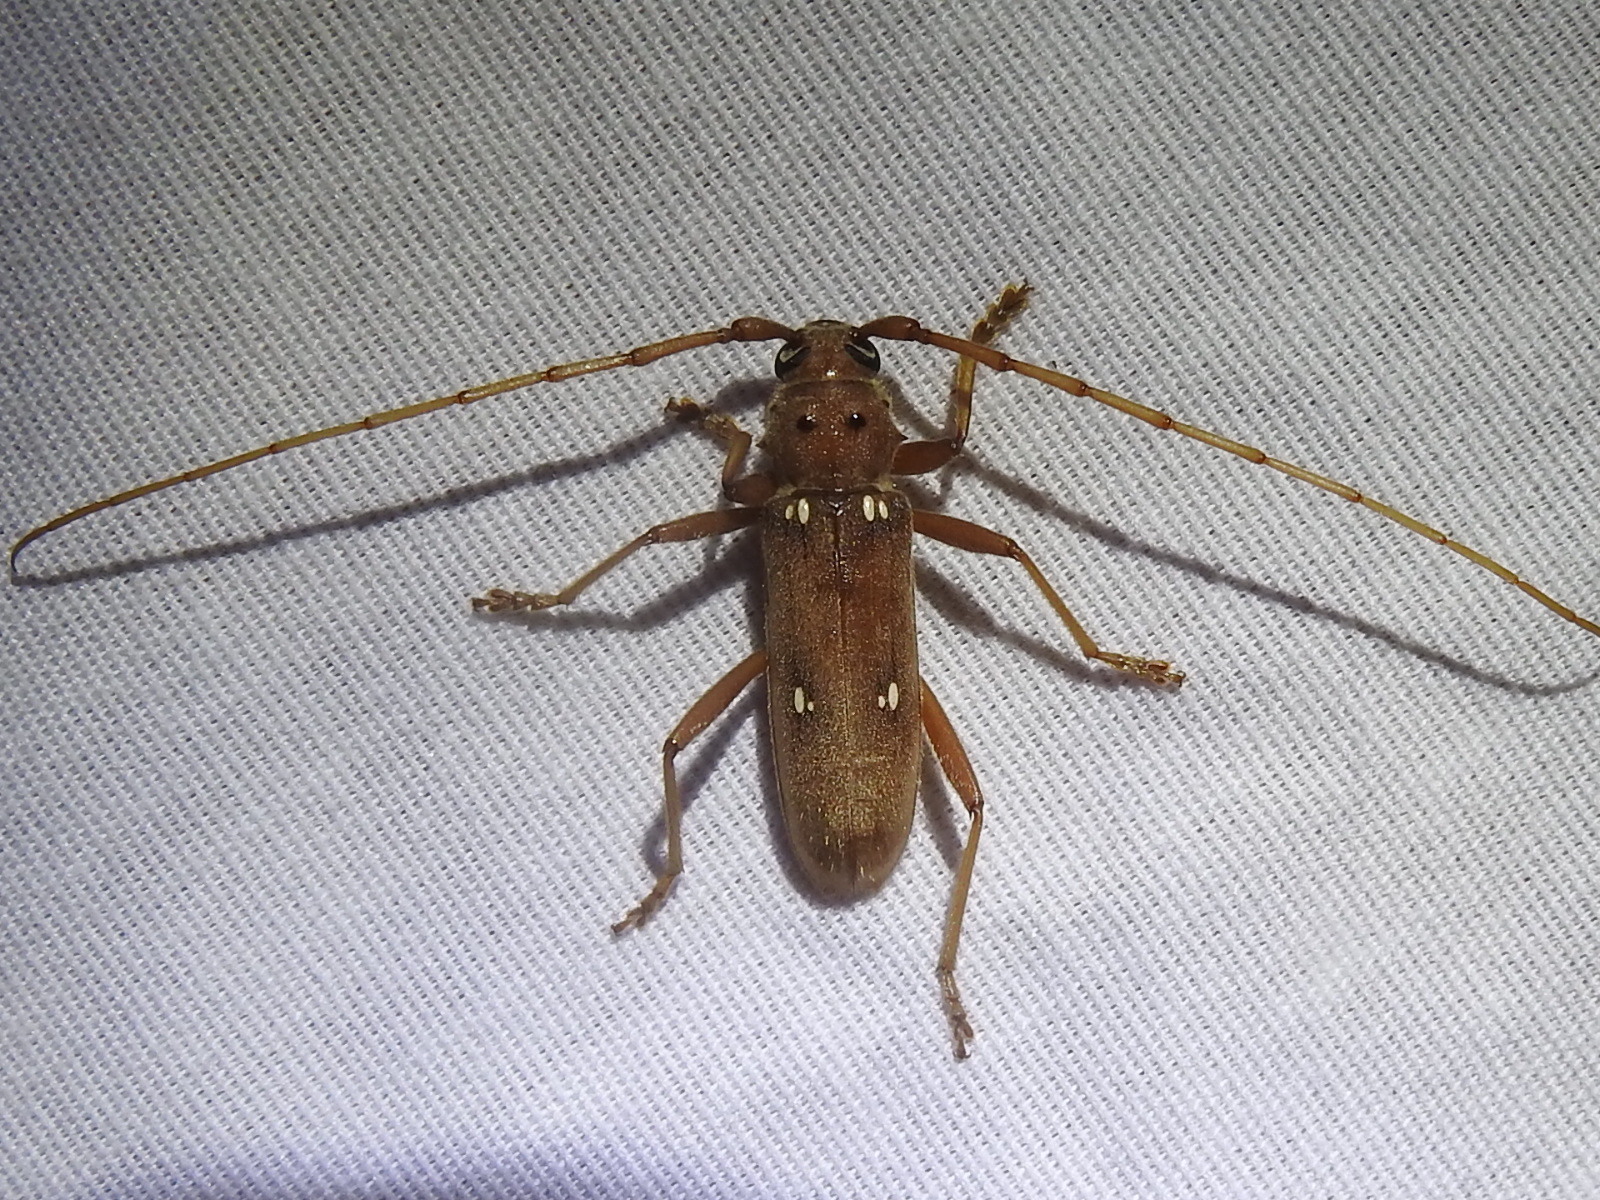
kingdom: Animalia
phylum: Arthropoda
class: Insecta
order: Coleoptera
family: Cerambycidae
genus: Eburia
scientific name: Eburia haldemani
